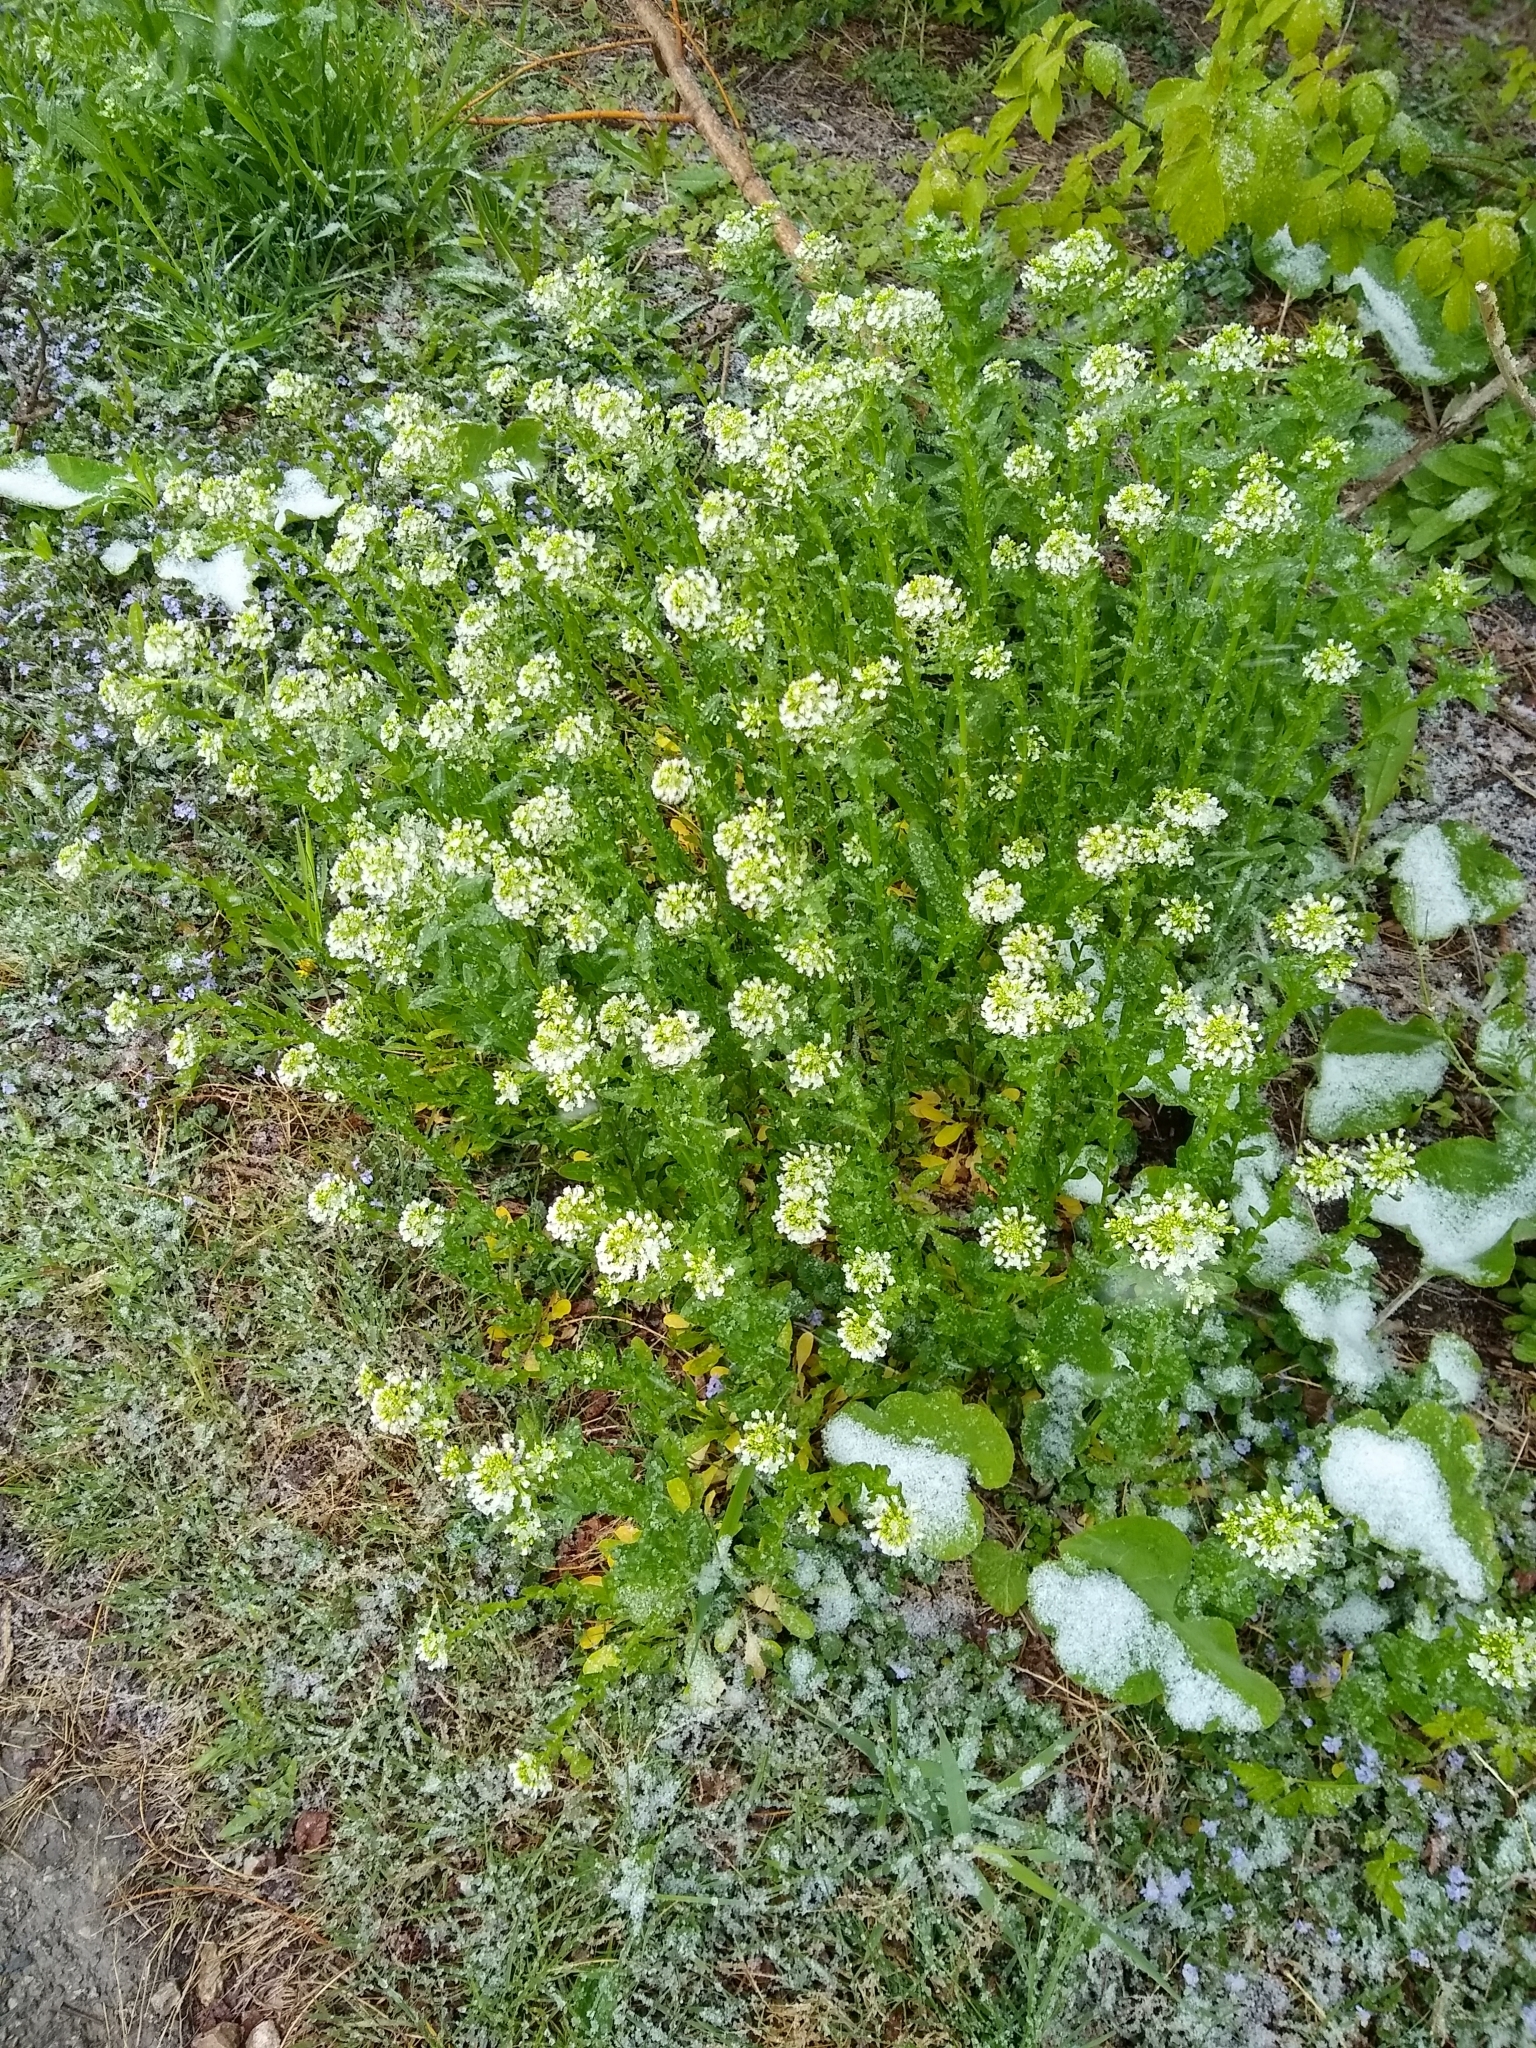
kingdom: Plantae
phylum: Tracheophyta
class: Magnoliopsida
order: Brassicales
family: Brassicaceae
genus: Thlaspi
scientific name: Thlaspi arvense
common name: Field pennycress
